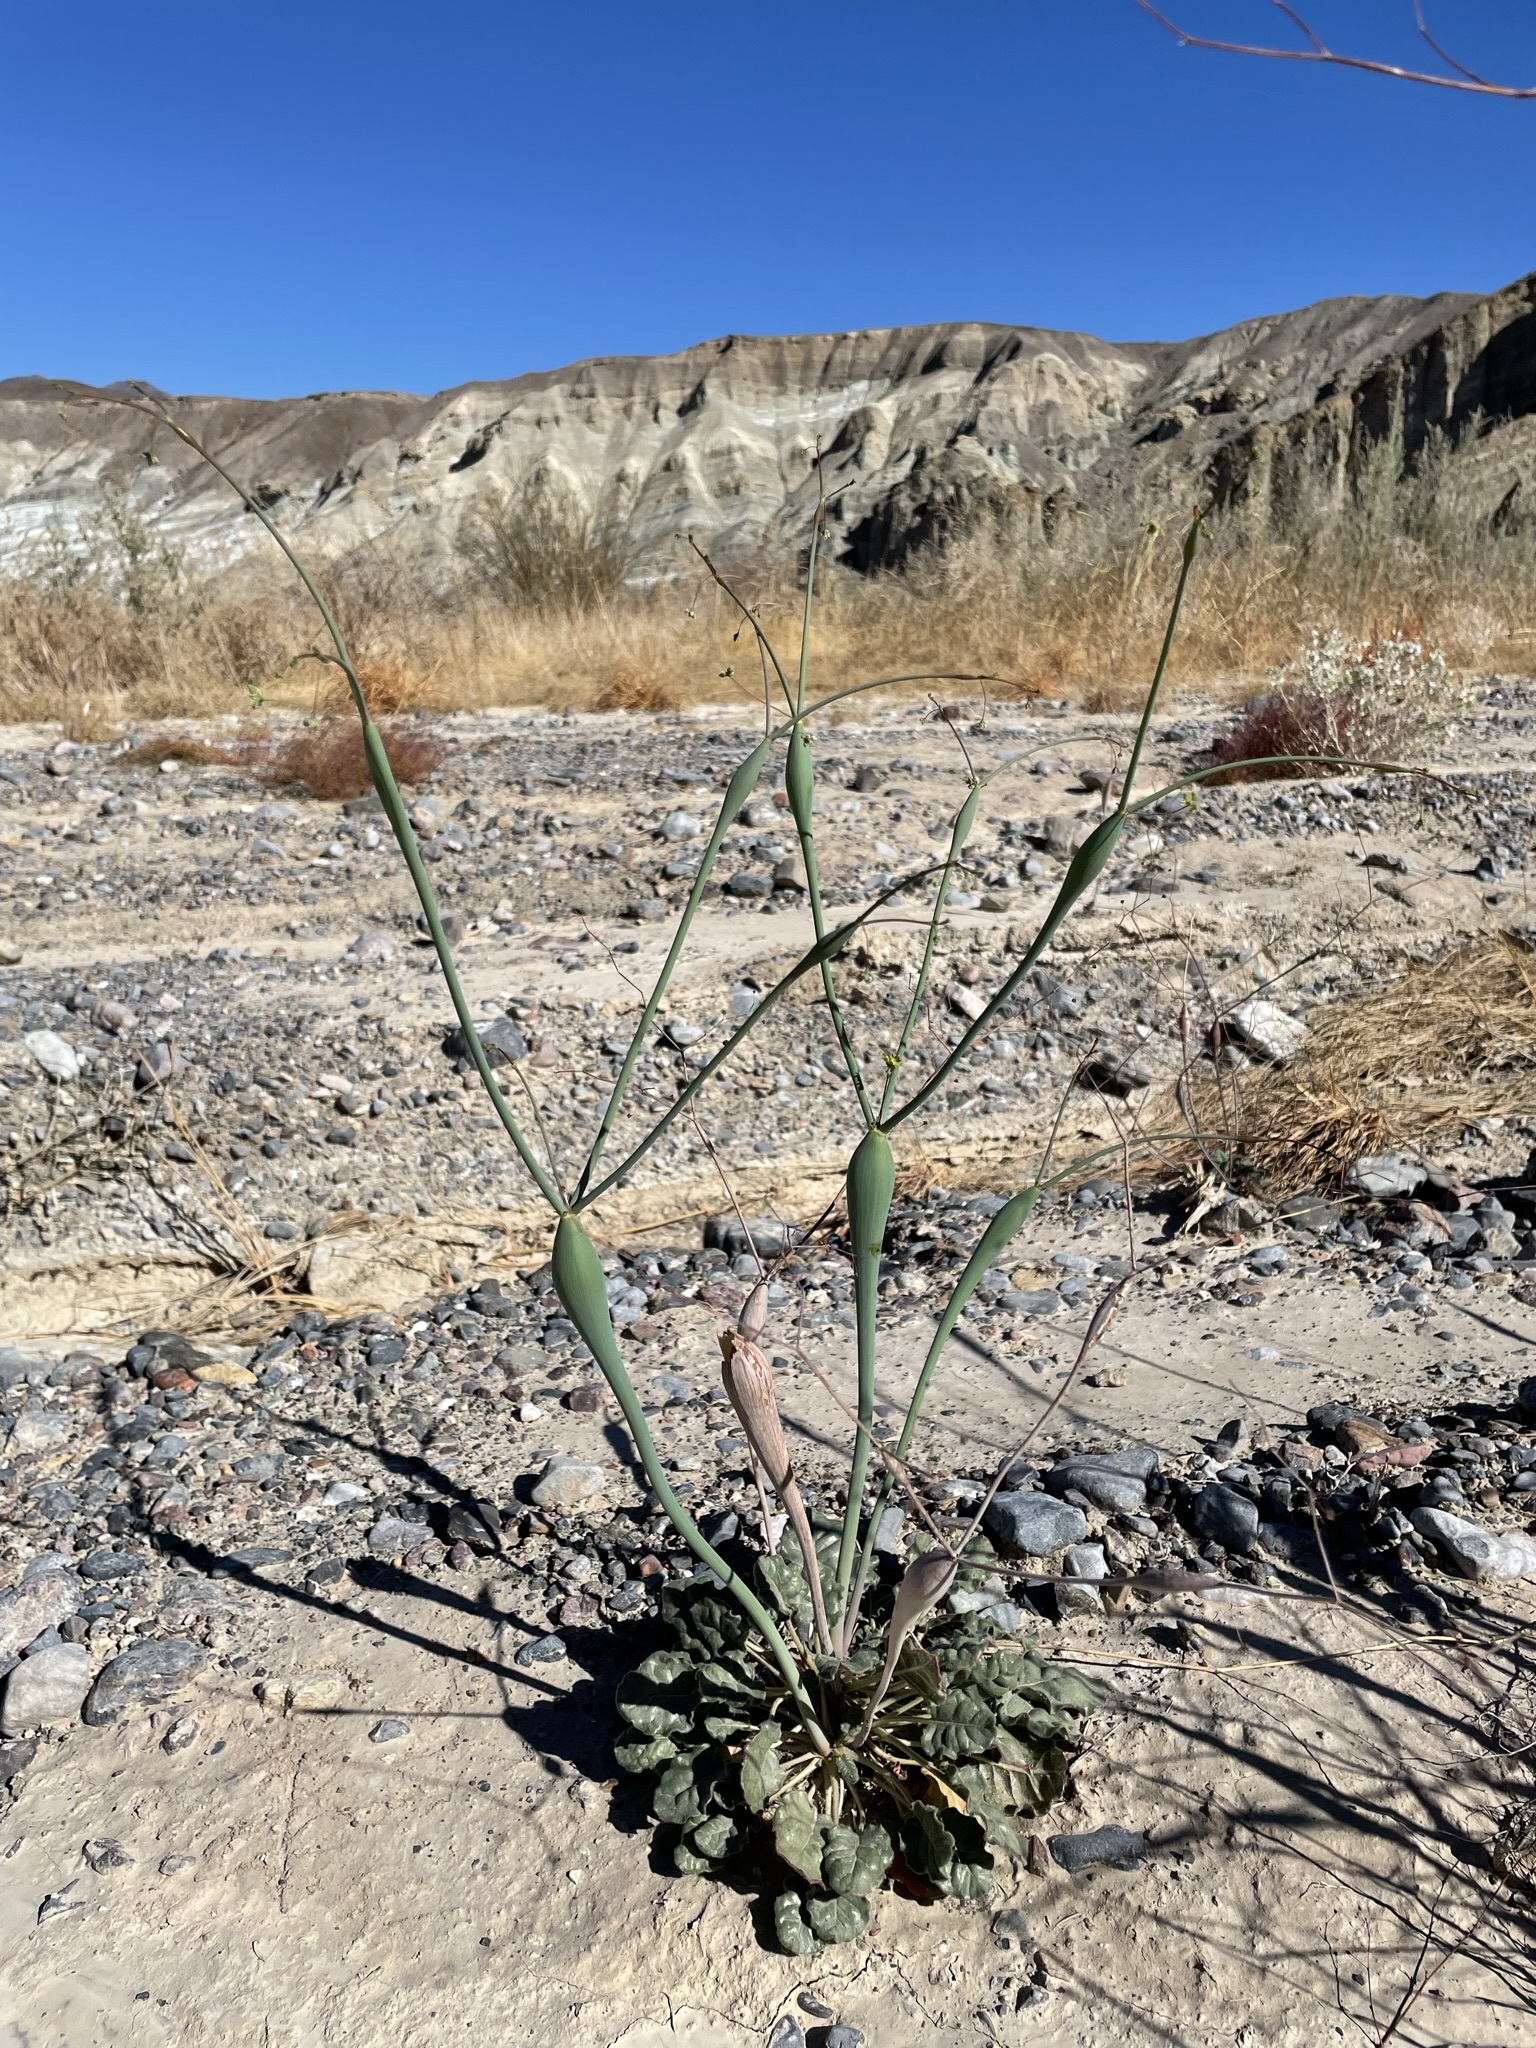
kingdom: Plantae
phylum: Tracheophyta
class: Magnoliopsida
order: Caryophyllales
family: Polygonaceae
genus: Eriogonum
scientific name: Eriogonum inflatum
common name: Desert trumpet
